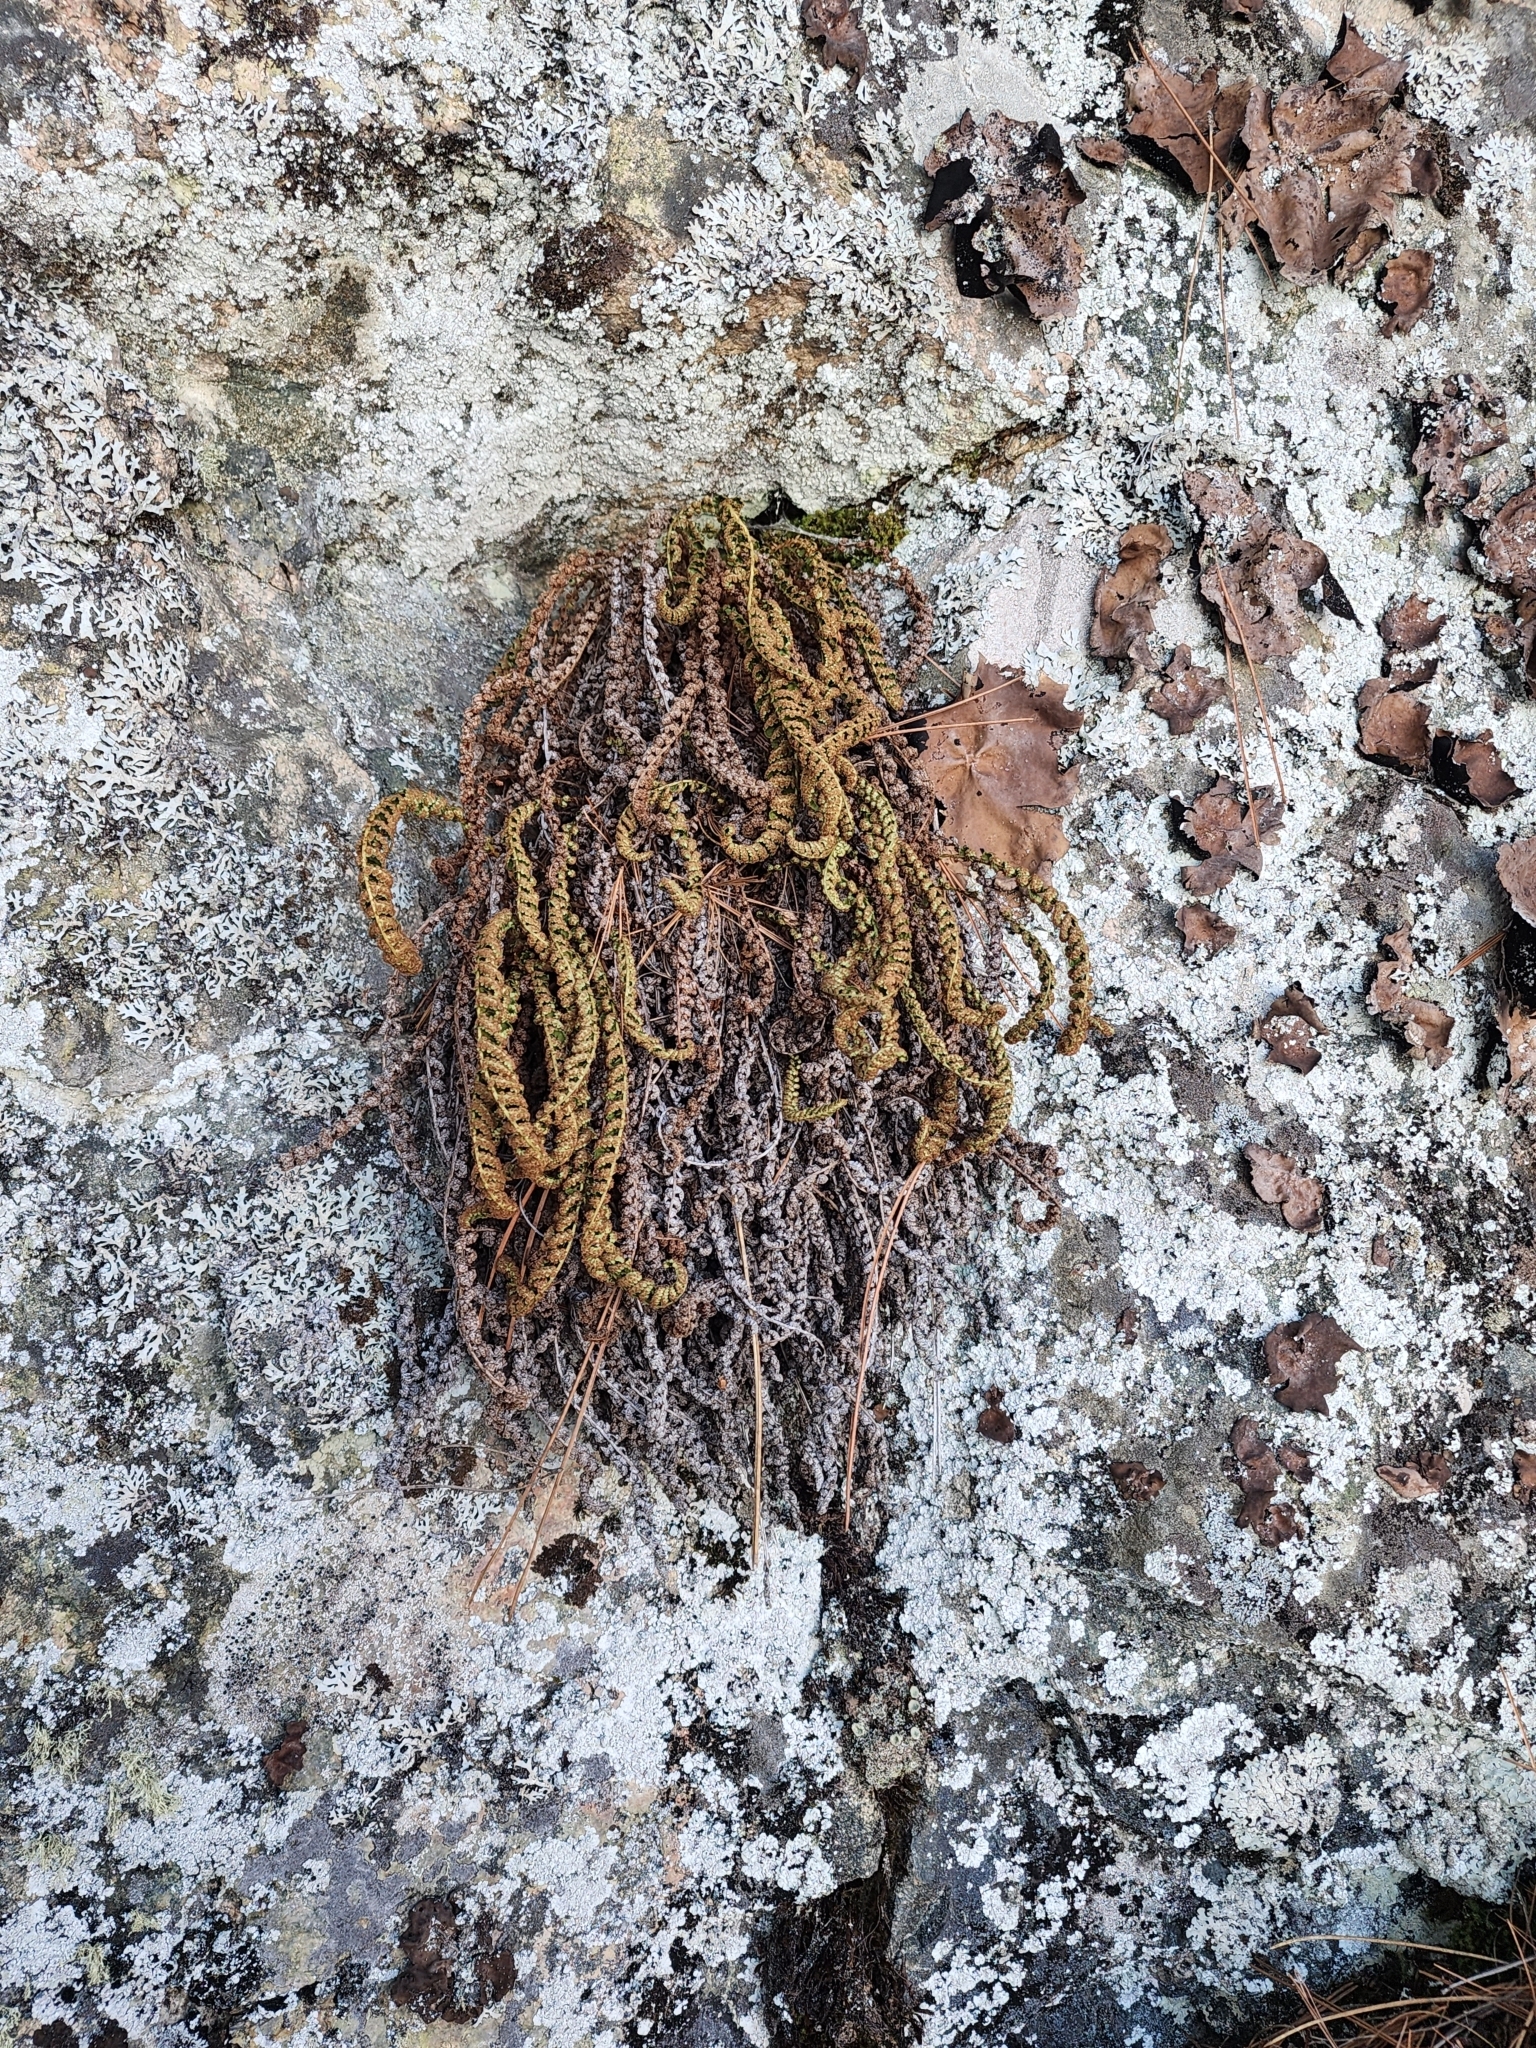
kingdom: Plantae
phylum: Tracheophyta
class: Polypodiopsida
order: Polypodiales
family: Dryopteridaceae
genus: Dryopteris
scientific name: Dryopteris fragrans
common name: Fragrant wood fern
